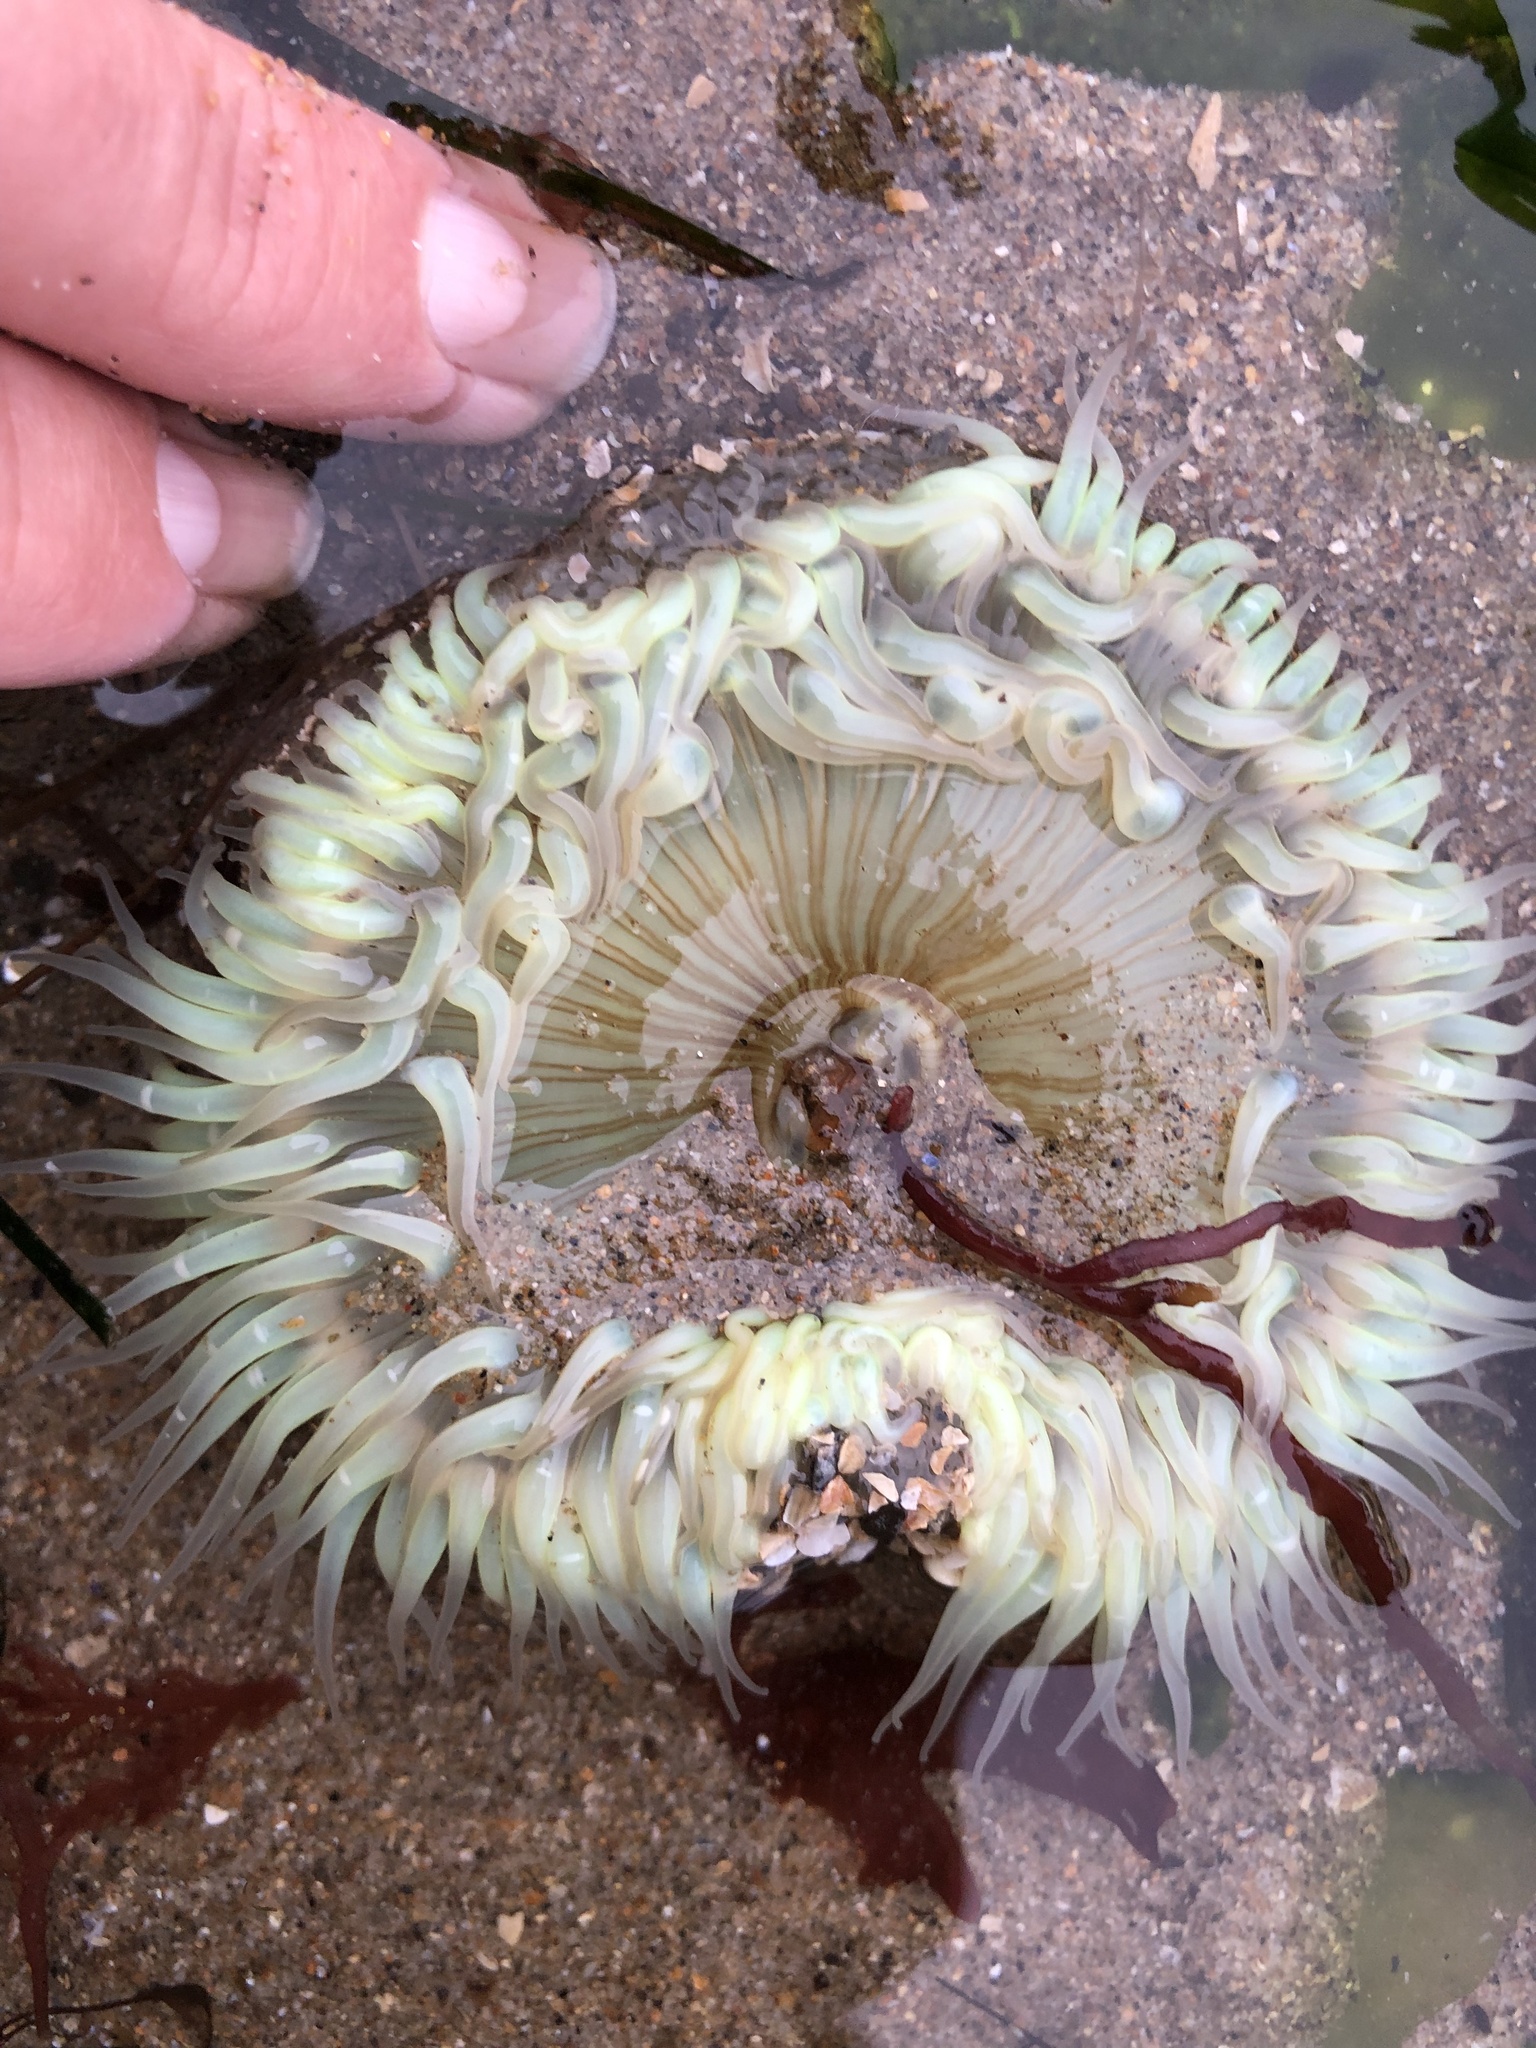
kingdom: Animalia
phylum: Cnidaria
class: Anthozoa
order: Actiniaria
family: Actiniidae
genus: Anthopleura
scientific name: Anthopleura sola
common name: Sun anemone
